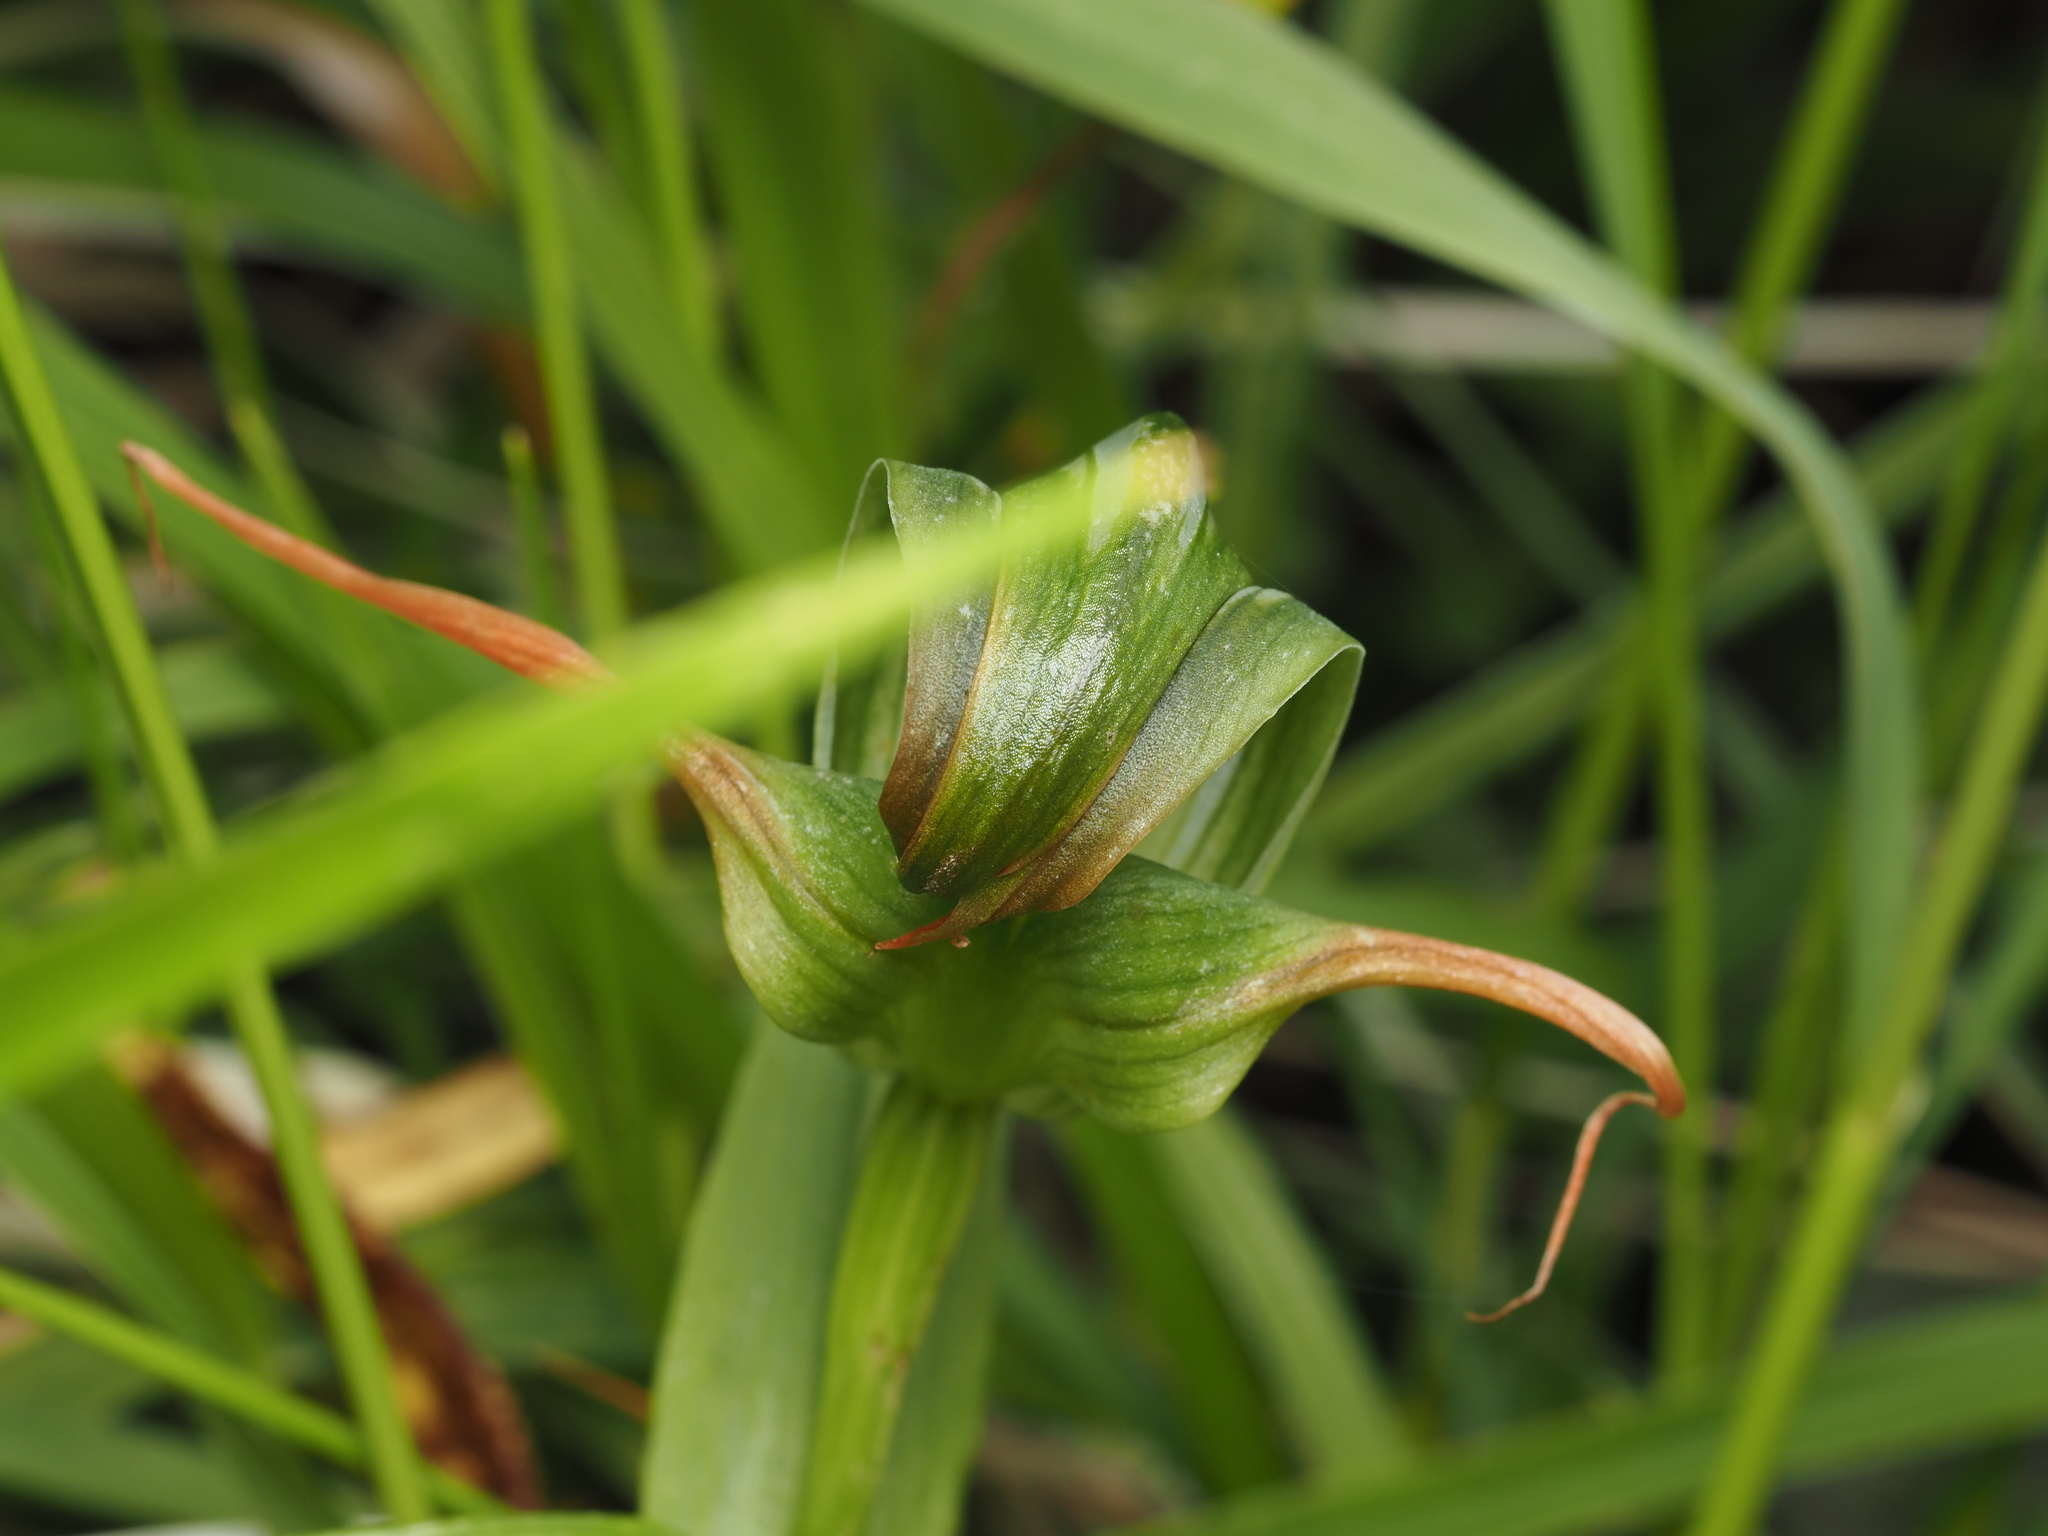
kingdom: Plantae
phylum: Tracheophyta
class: Liliopsida
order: Asparagales
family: Orchidaceae
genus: Pterostylis
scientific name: Pterostylis patens
